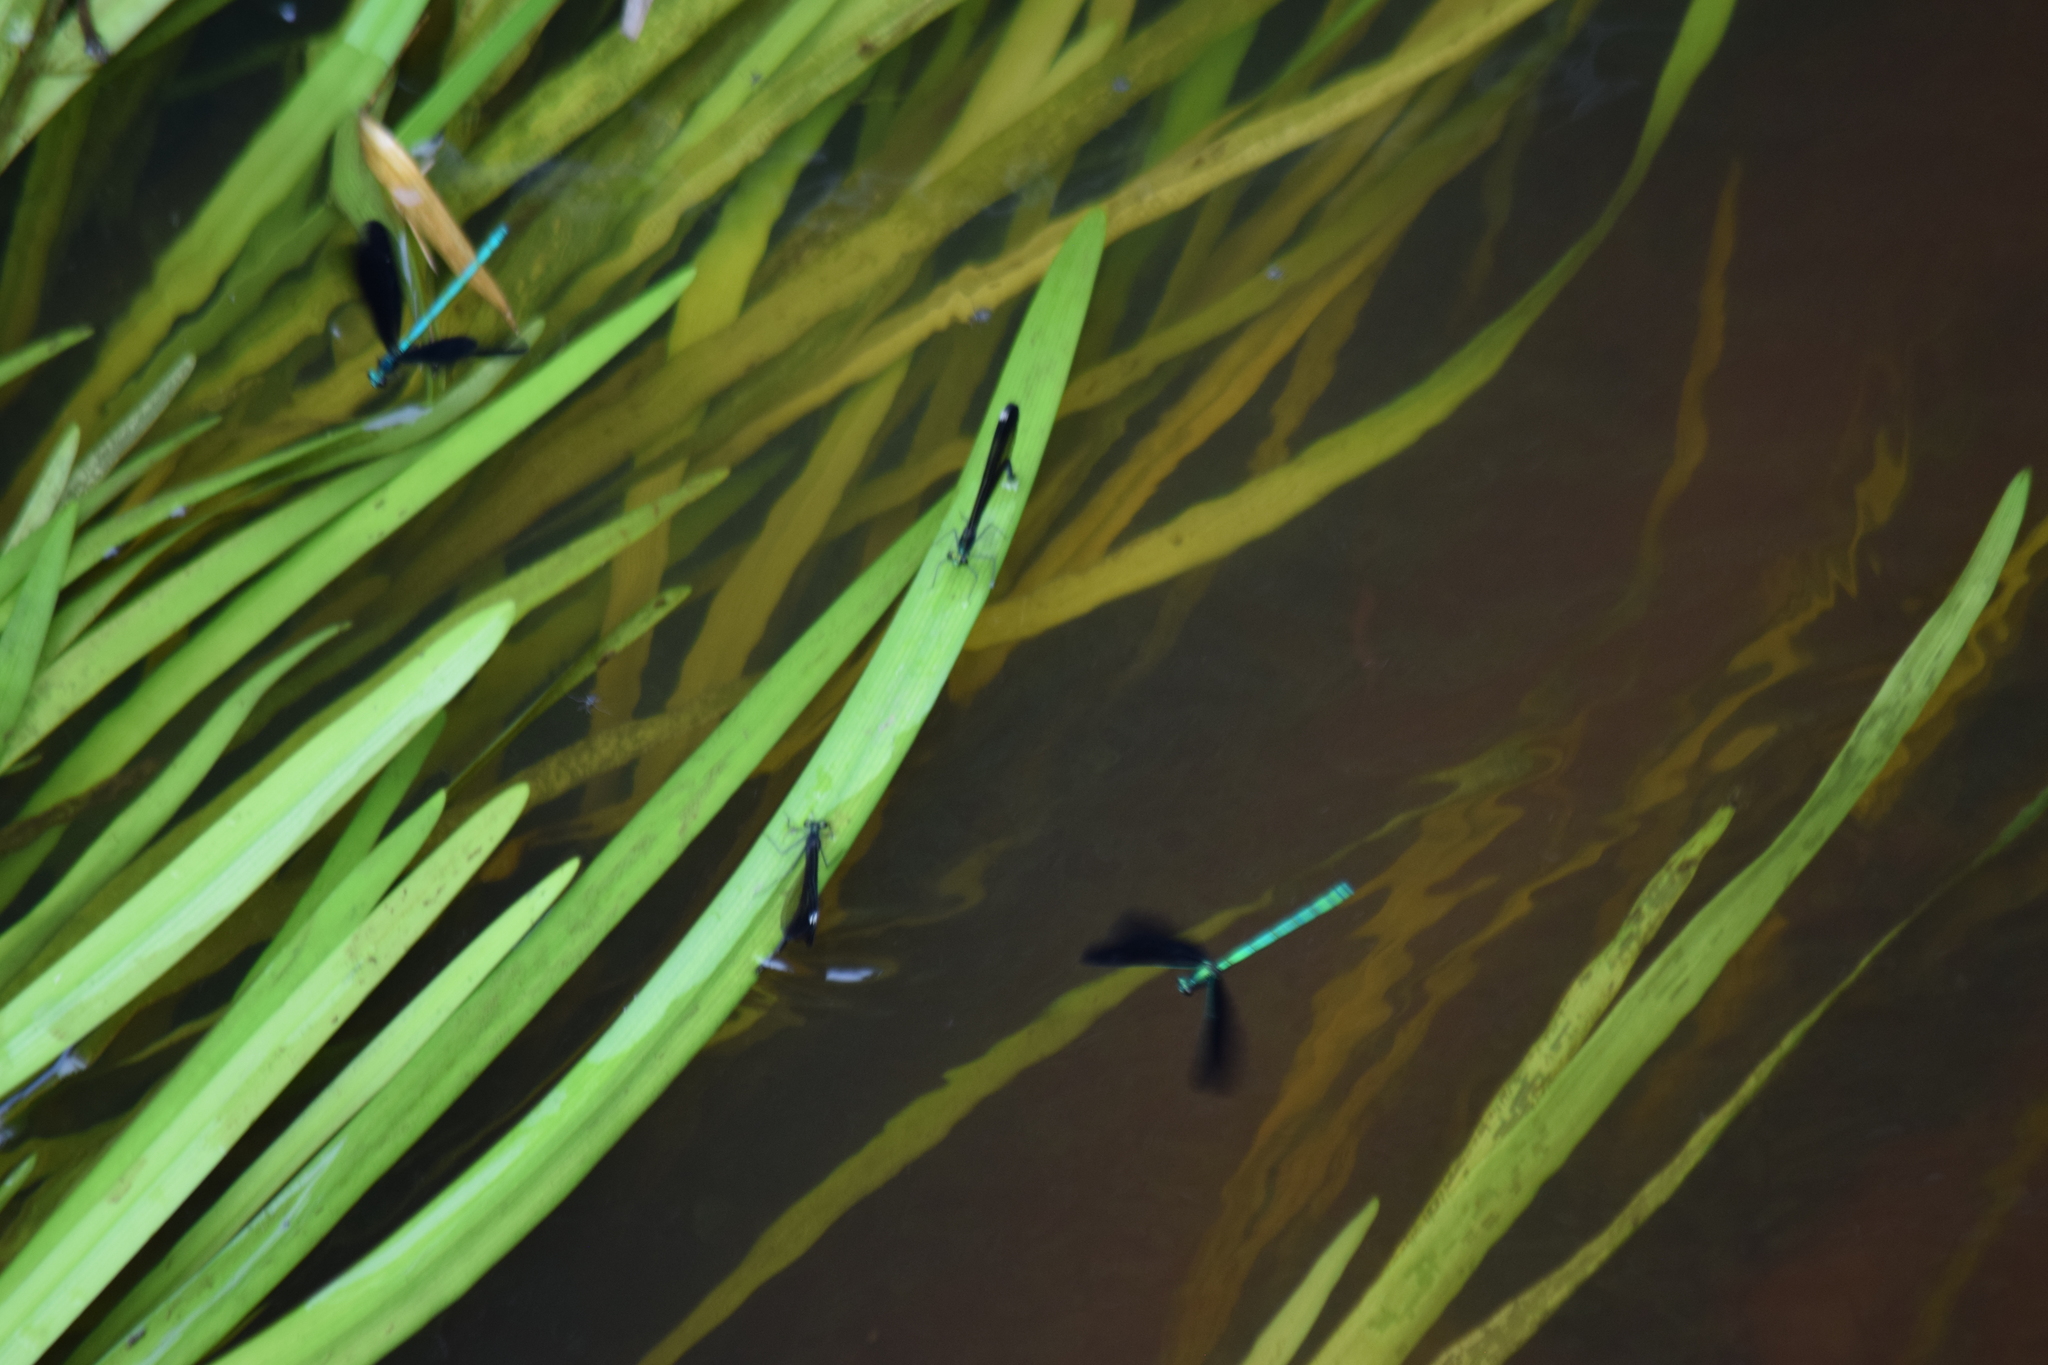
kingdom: Animalia
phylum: Arthropoda
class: Insecta
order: Odonata
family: Calopterygidae
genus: Calopteryx
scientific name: Calopteryx maculata
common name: Ebony jewelwing
